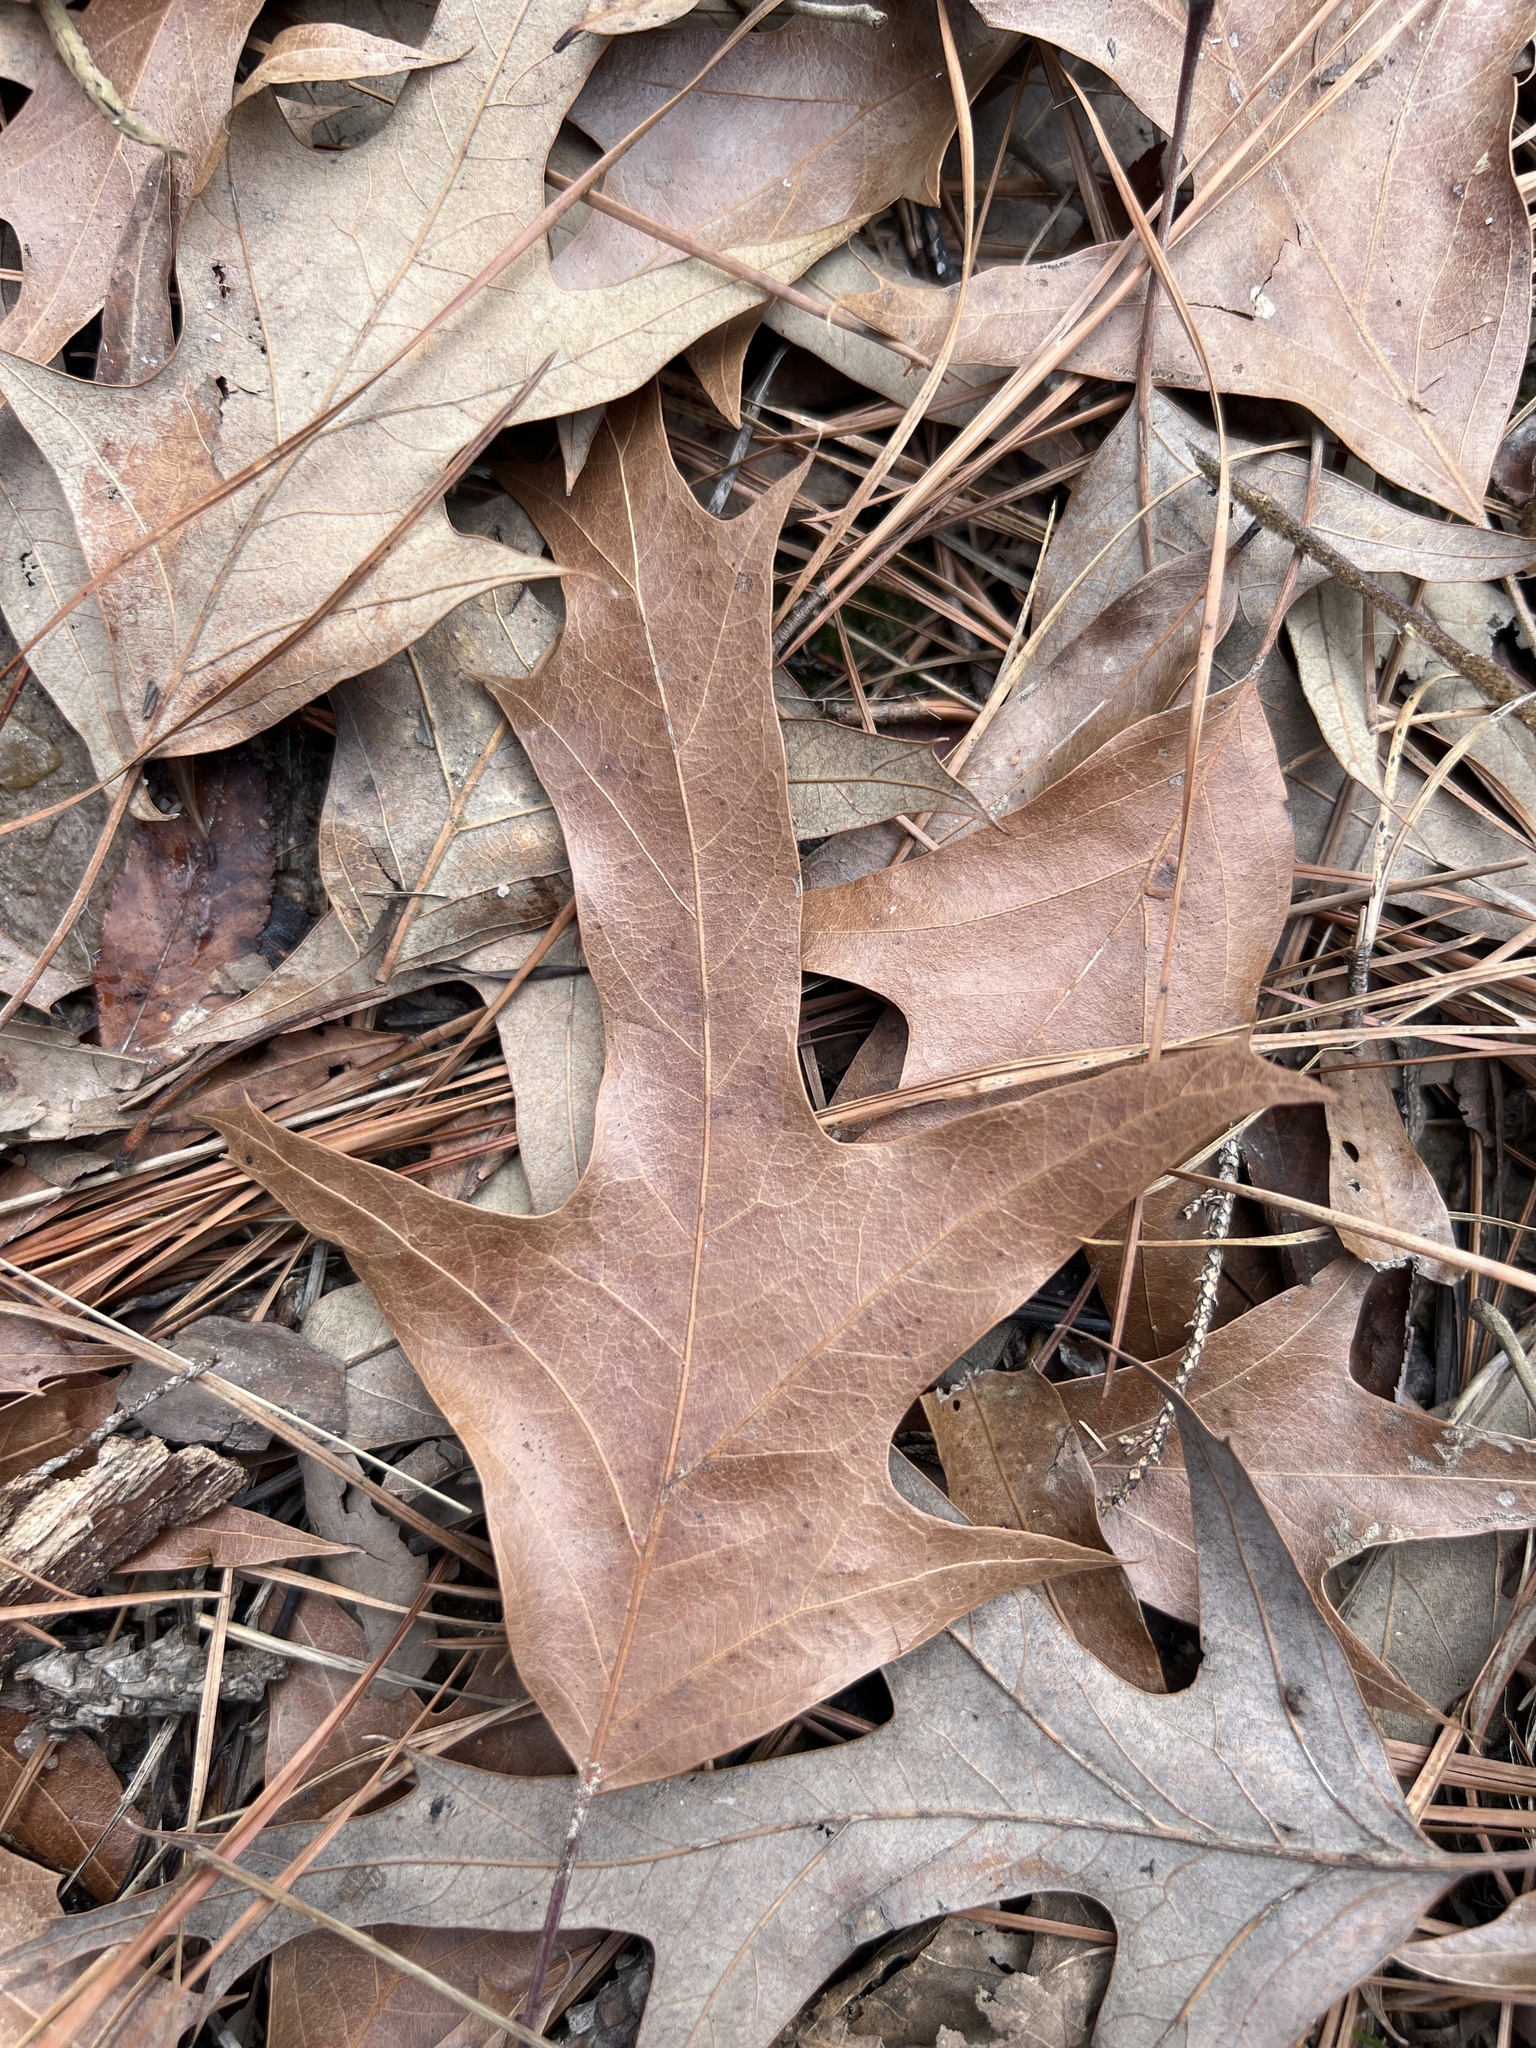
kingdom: Plantae
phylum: Tracheophyta
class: Magnoliopsida
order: Fagales
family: Fagaceae
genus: Quercus
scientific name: Quercus falcata
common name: Southern red oak
